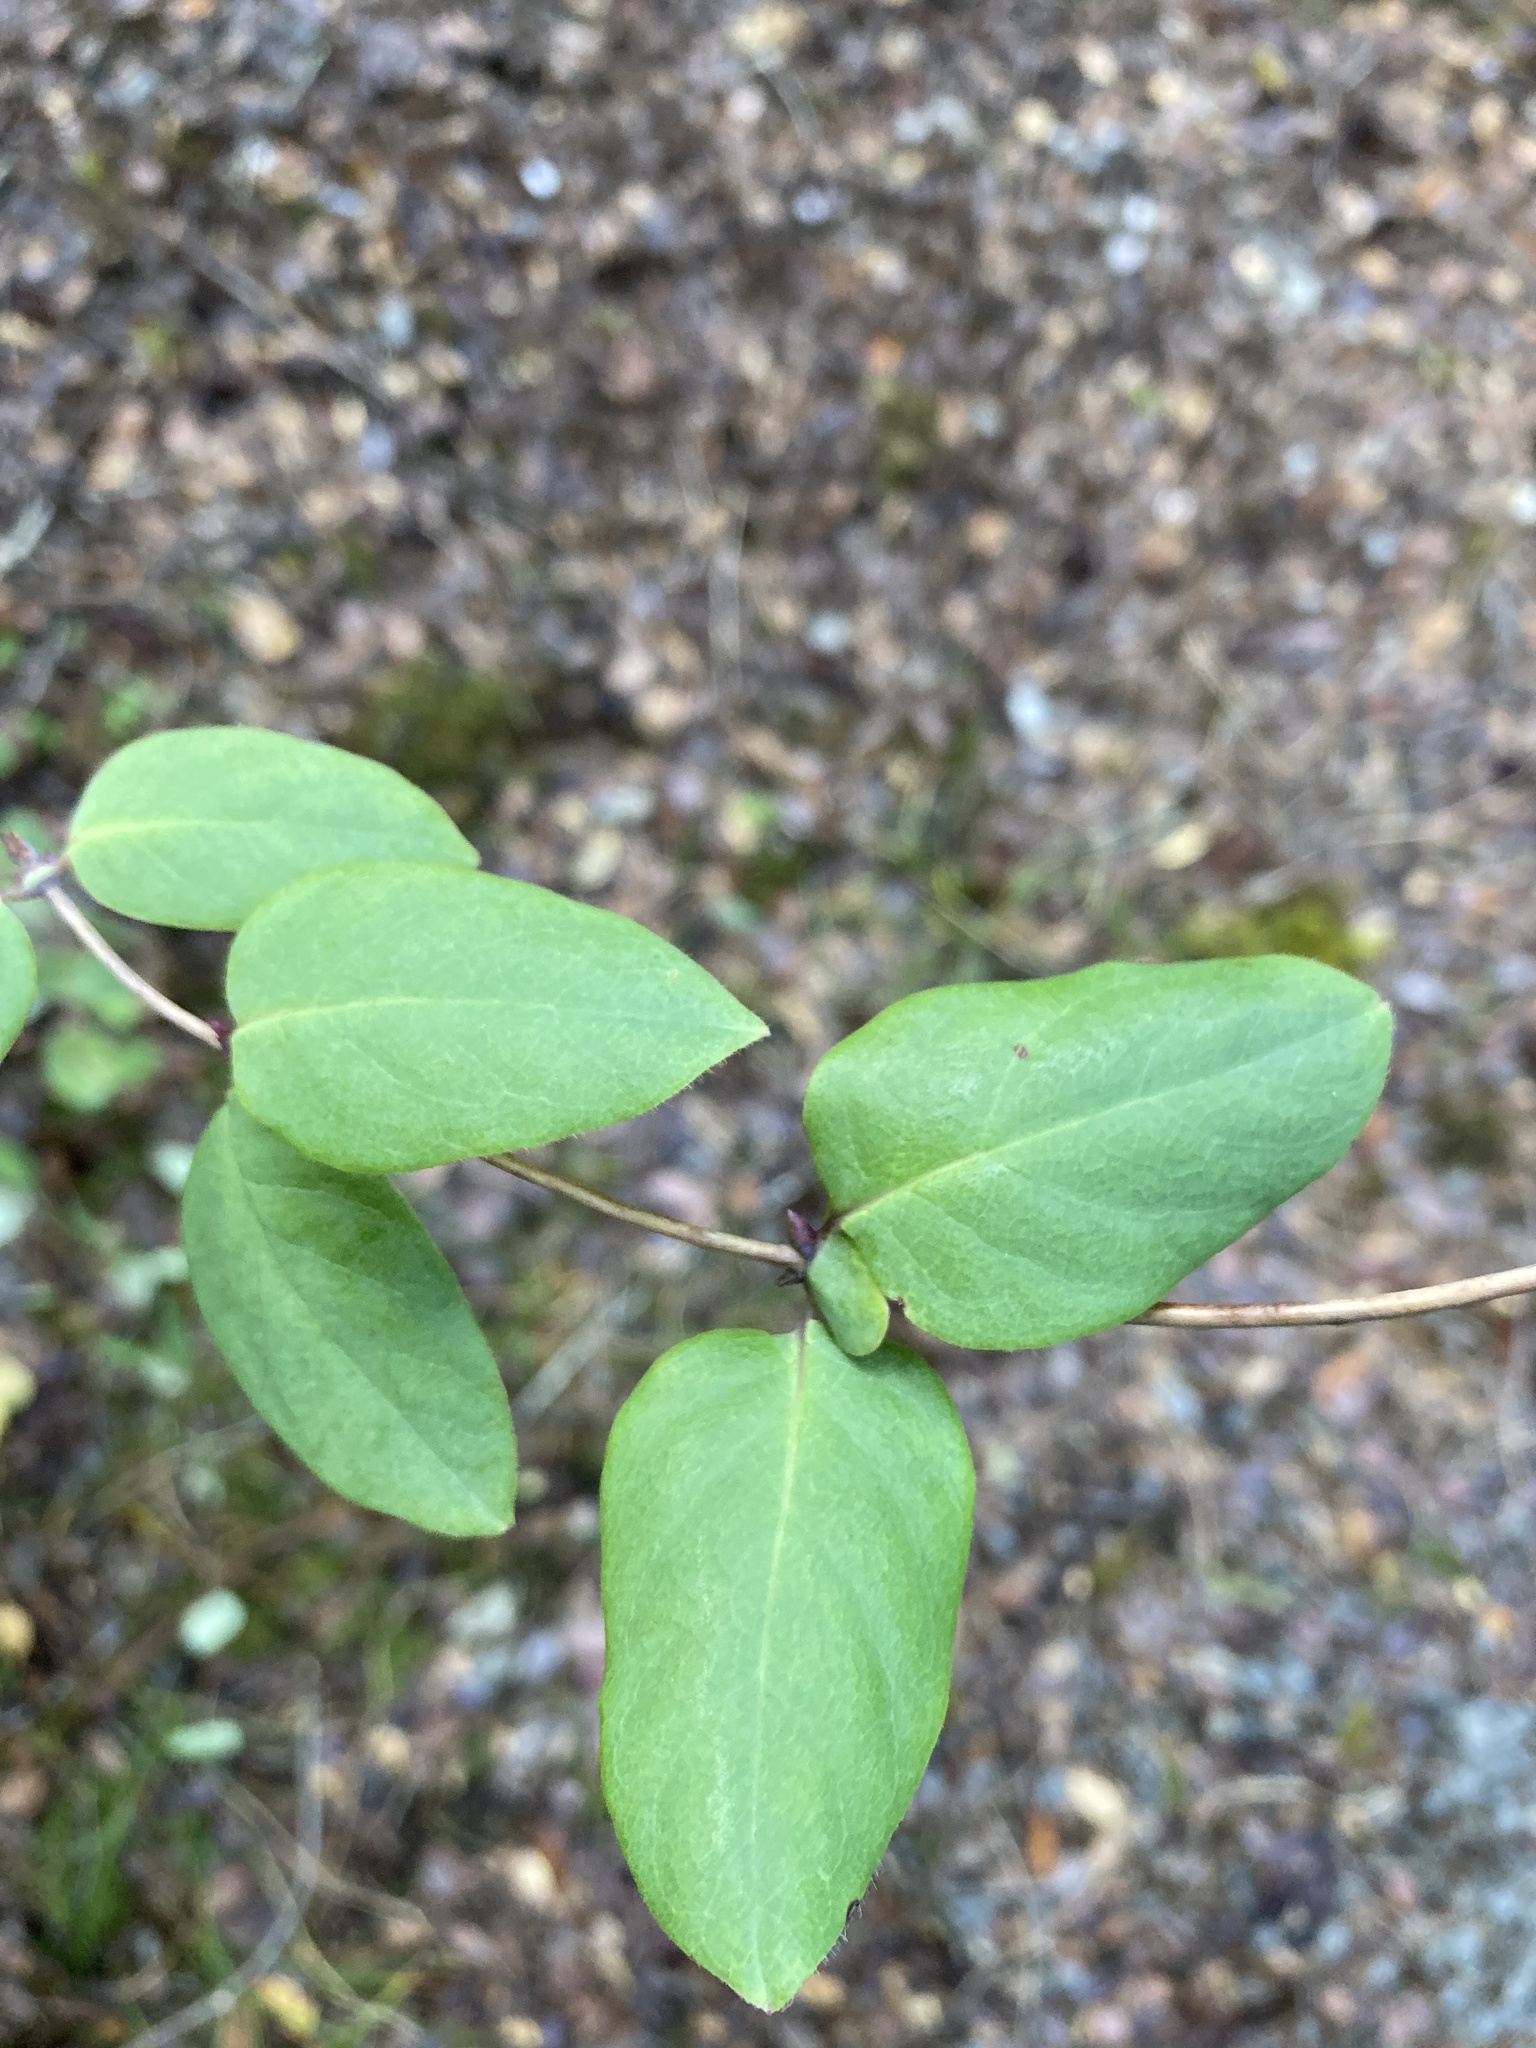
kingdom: Plantae
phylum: Tracheophyta
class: Magnoliopsida
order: Dipsacales
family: Caprifoliaceae
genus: Lonicera
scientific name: Lonicera hispidula
